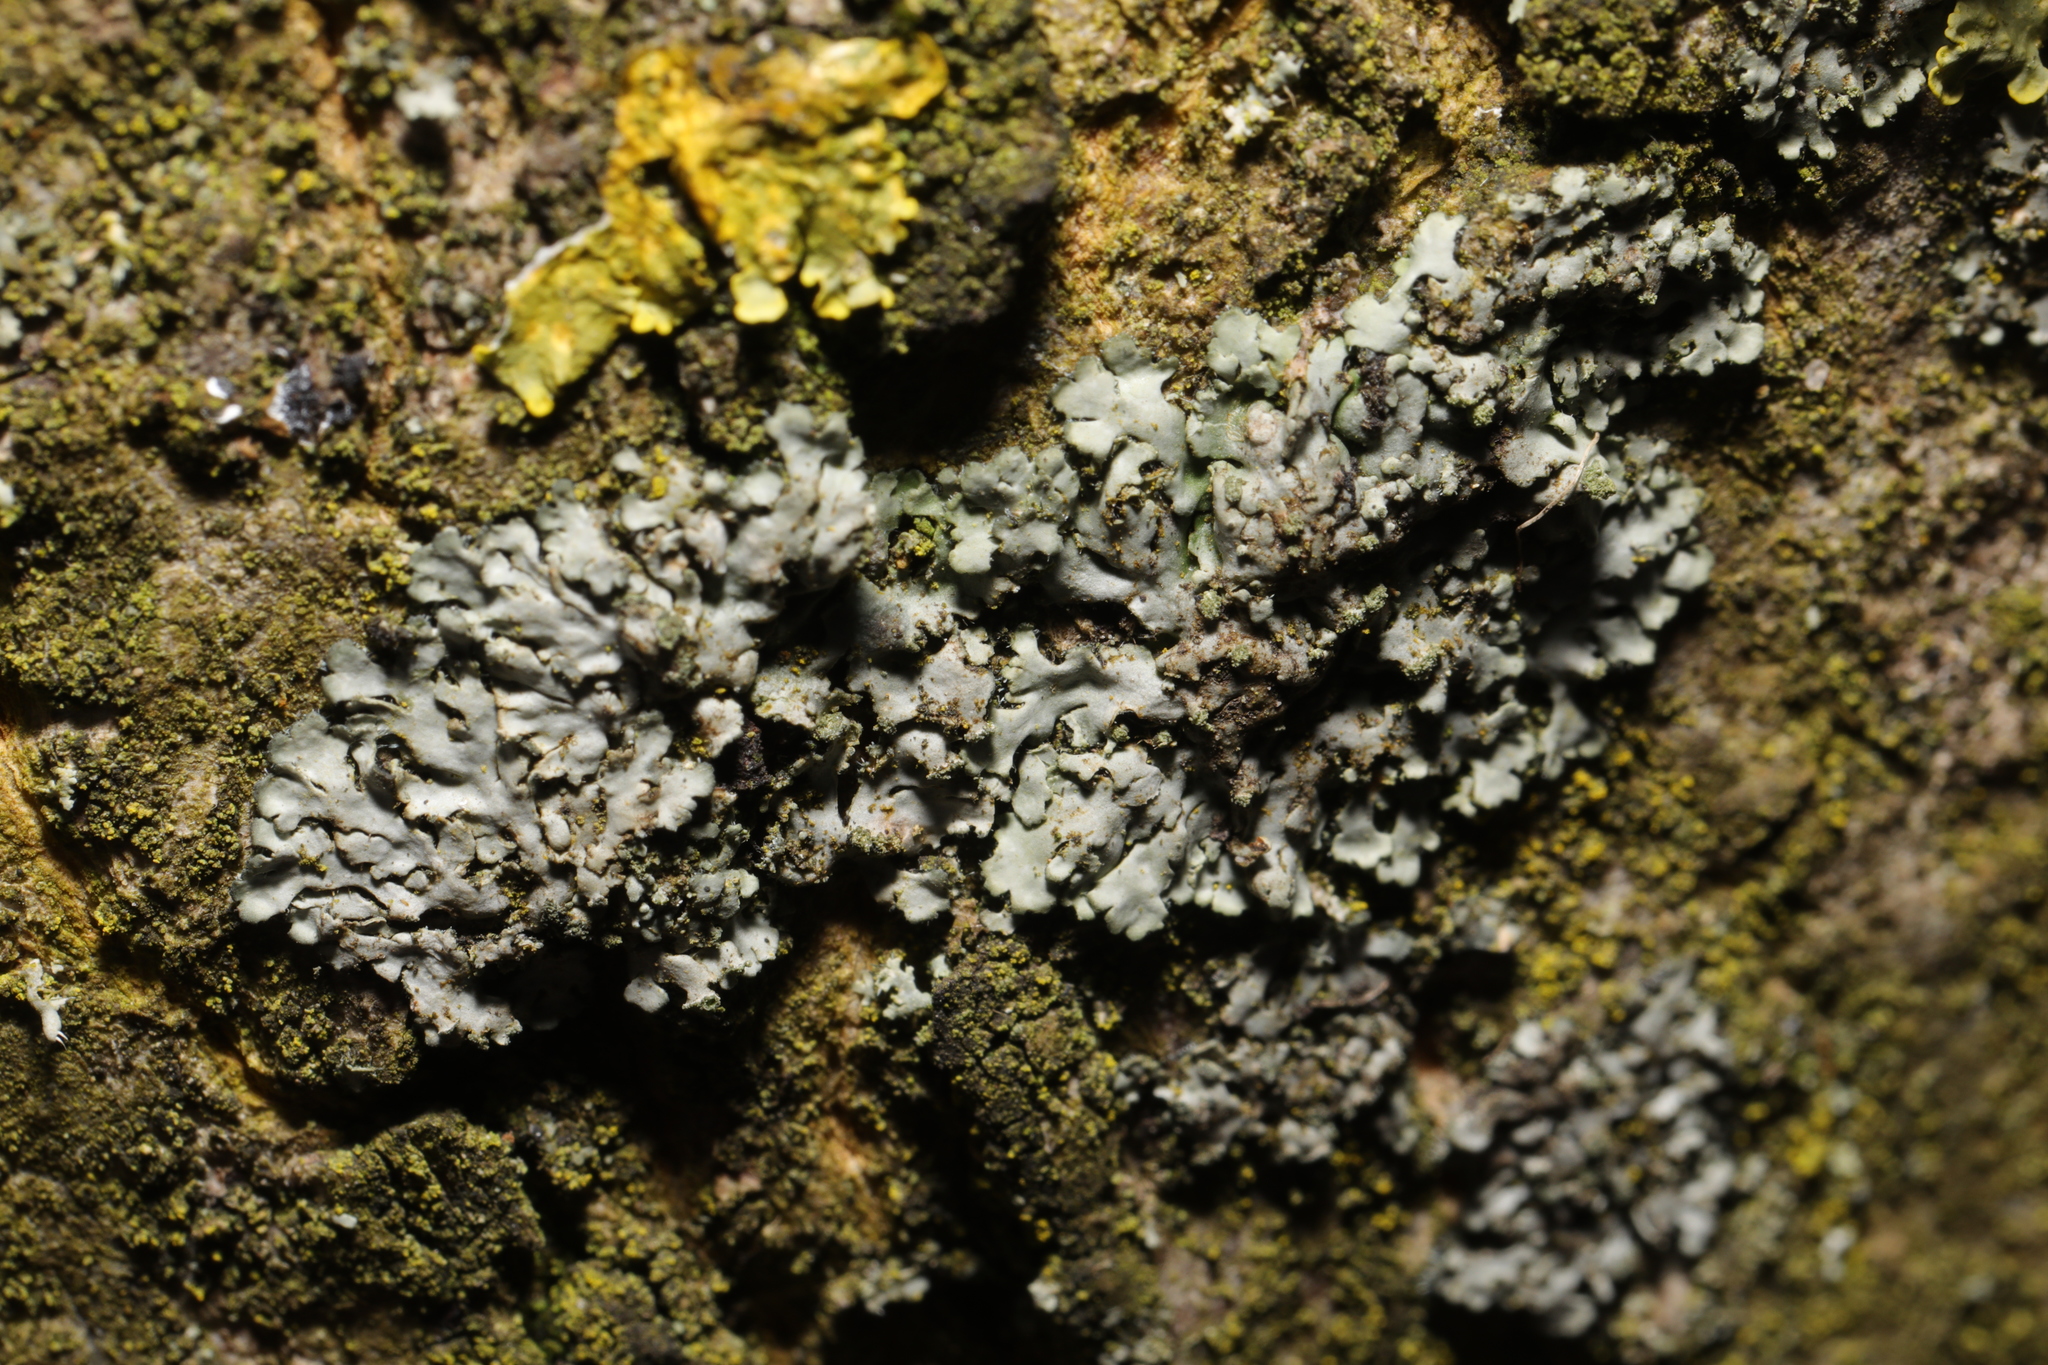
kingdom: Fungi
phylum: Ascomycota
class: Lecanoromycetes
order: Caliciales
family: Physciaceae
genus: Phaeophyscia
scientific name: Phaeophyscia orbicularis
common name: Mealy shadow lichen
